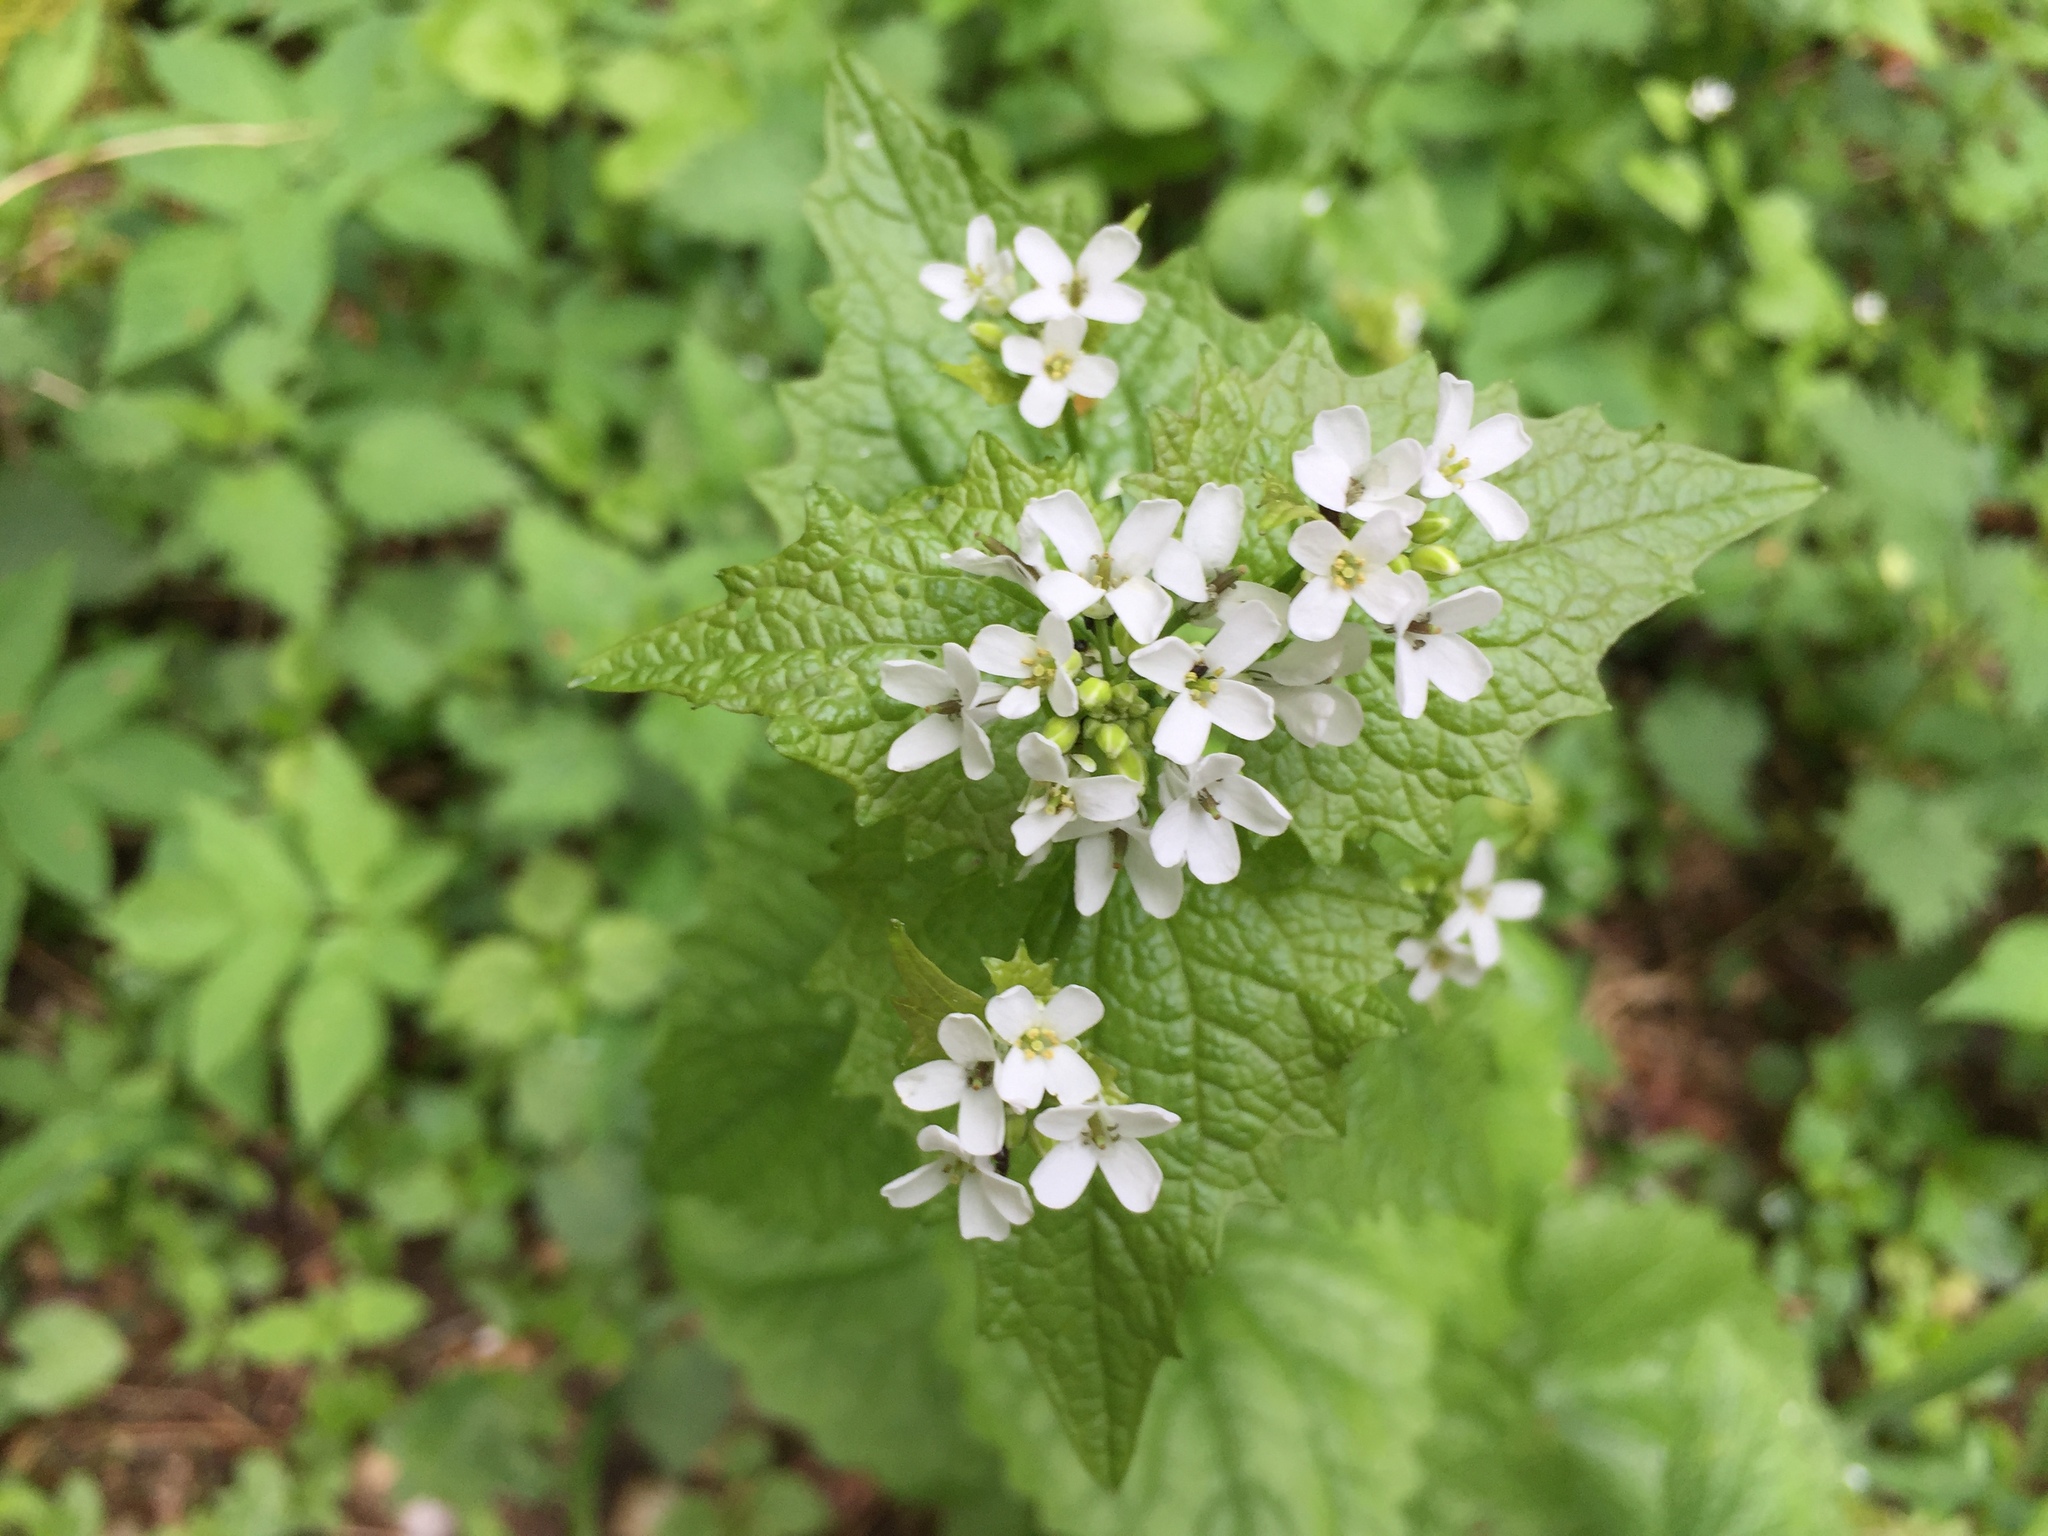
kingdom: Plantae
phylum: Tracheophyta
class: Magnoliopsida
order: Brassicales
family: Brassicaceae
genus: Alliaria
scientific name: Alliaria petiolata
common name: Garlic mustard
